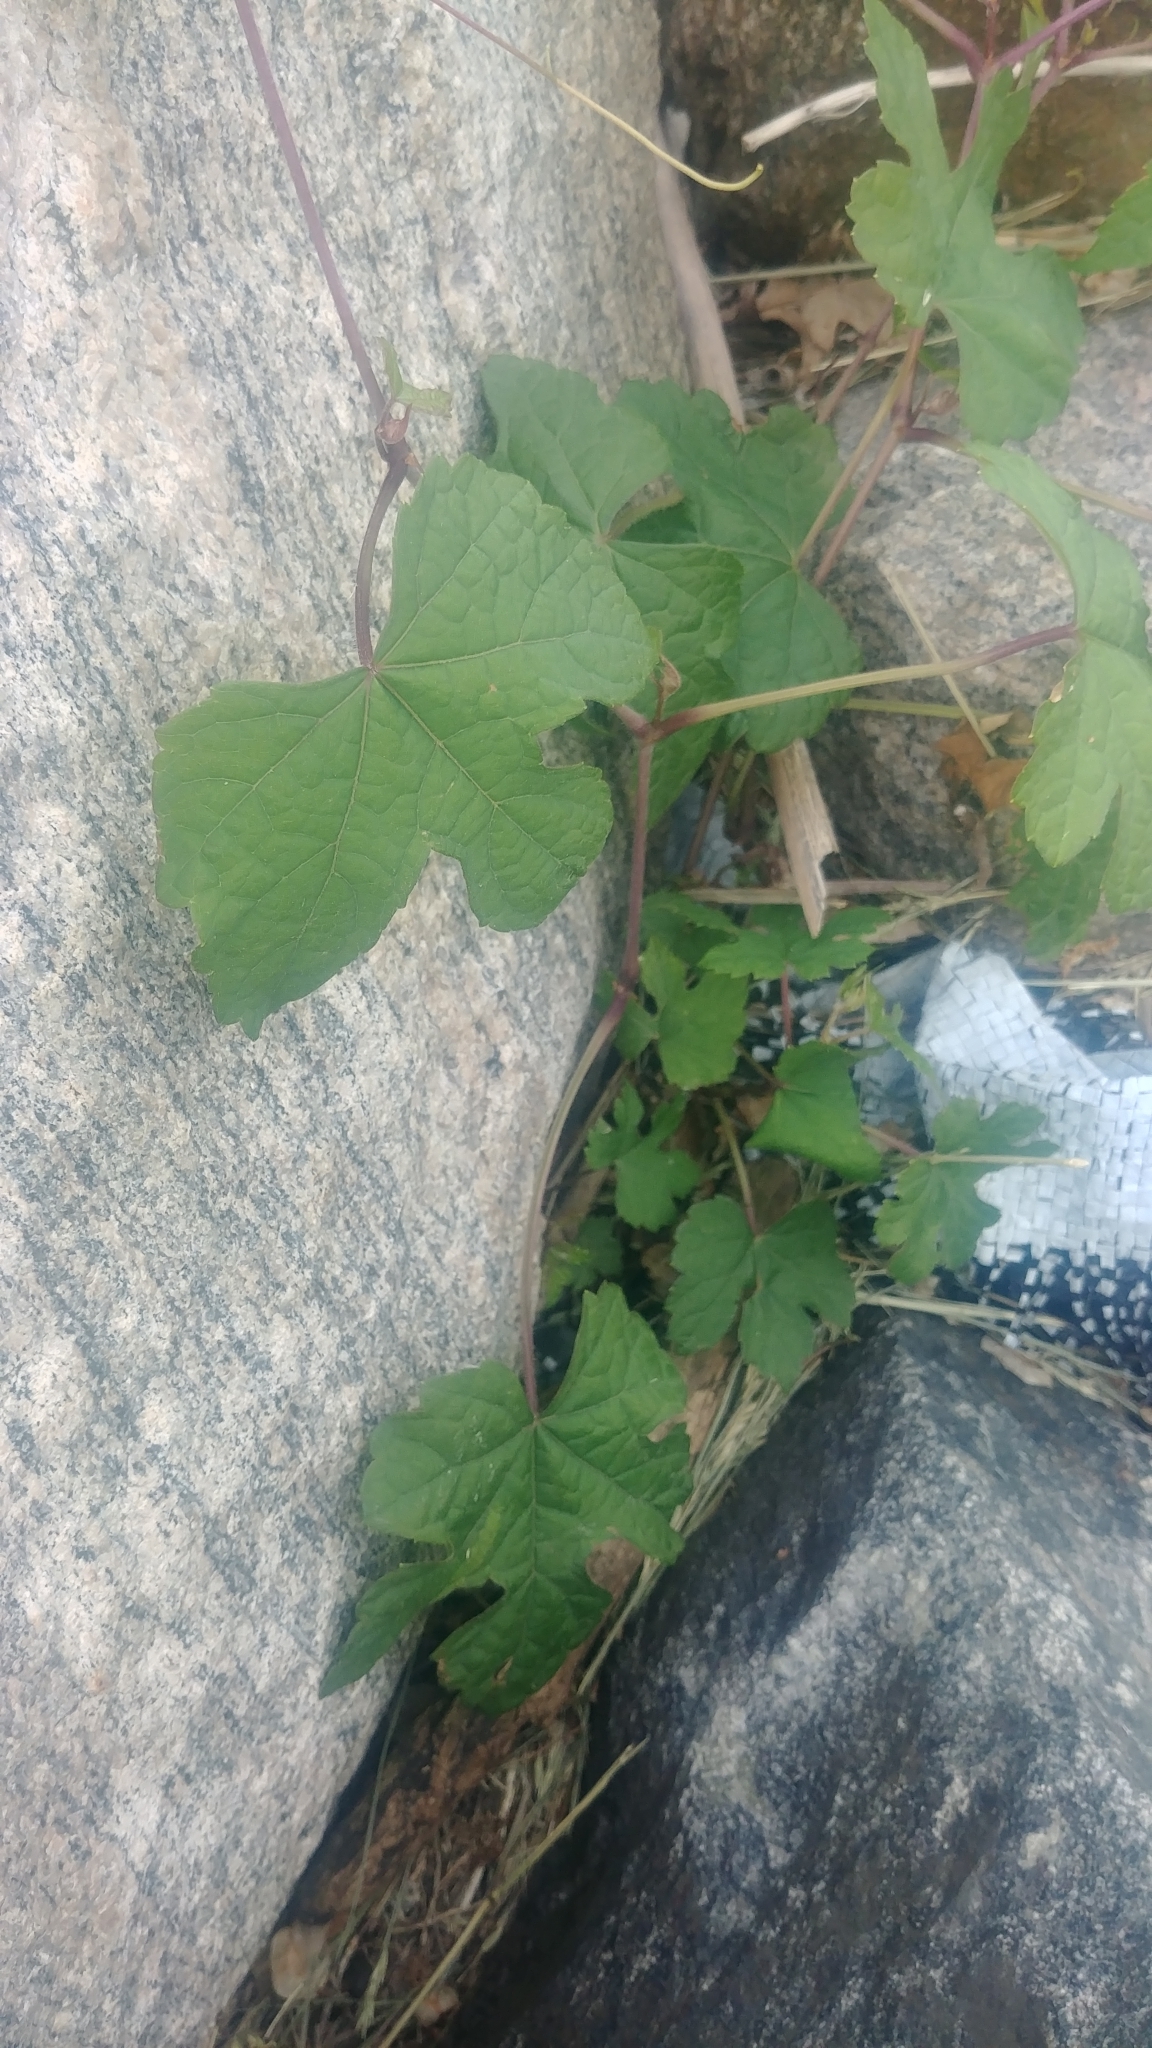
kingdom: Plantae
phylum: Tracheophyta
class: Magnoliopsida
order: Vitales
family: Vitaceae
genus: Ampelopsis
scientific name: Ampelopsis glandulosa
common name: Amur peppervine
